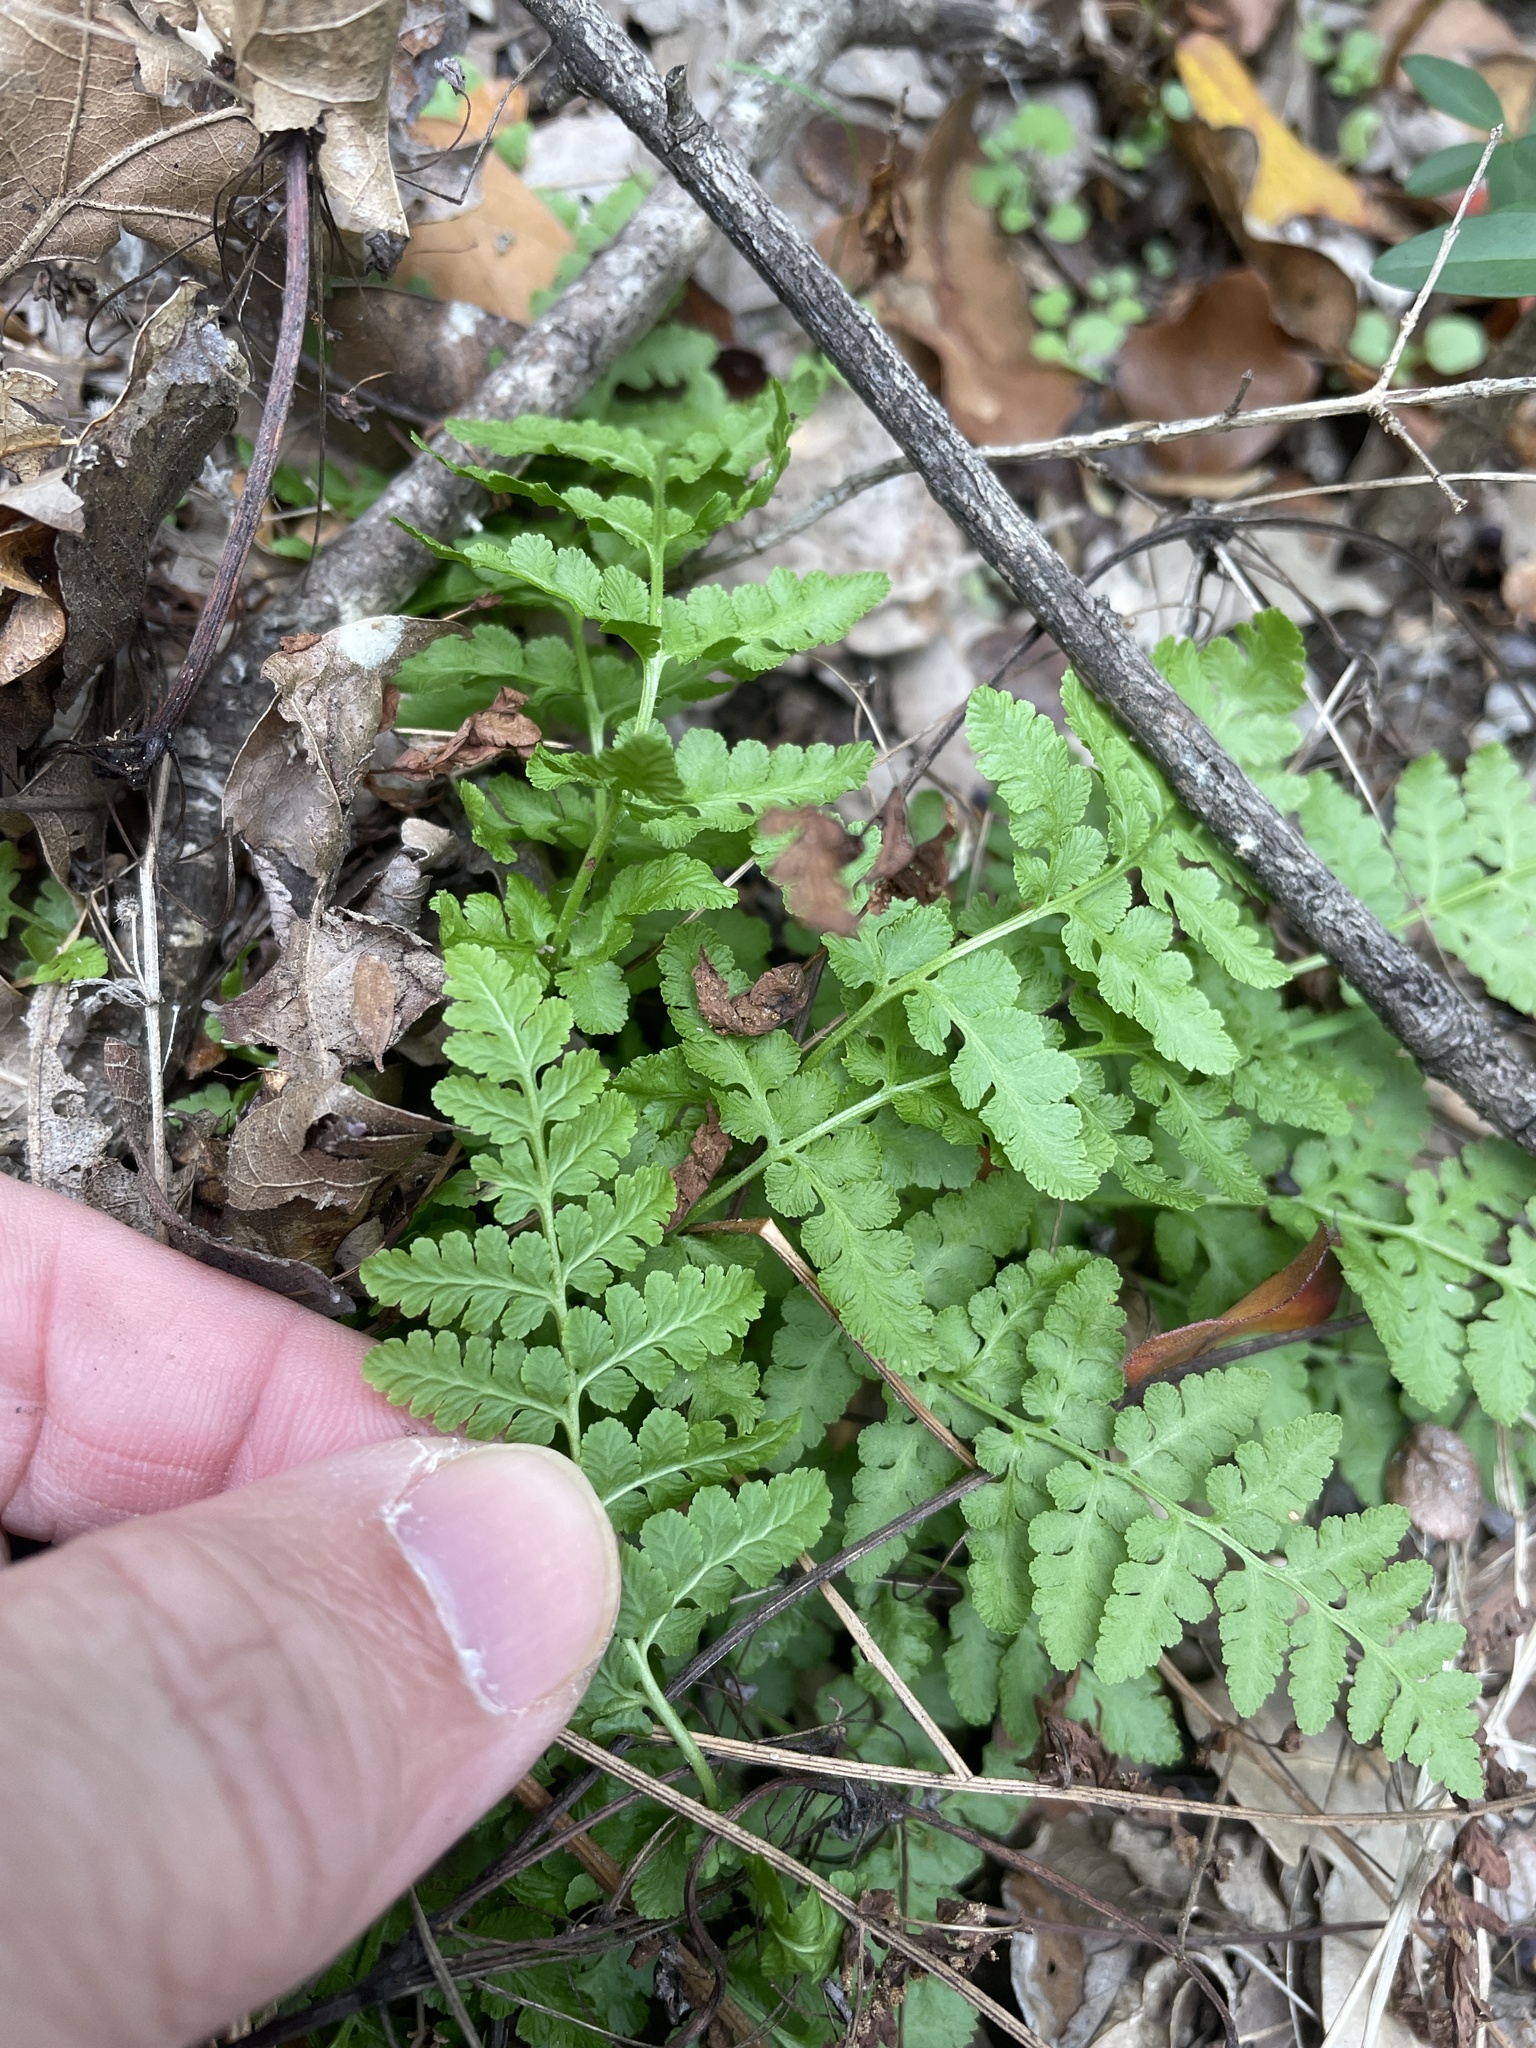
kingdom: Plantae
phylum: Tracheophyta
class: Polypodiopsida
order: Polypodiales
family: Woodsiaceae
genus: Physematium
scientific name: Physematium obtusum
